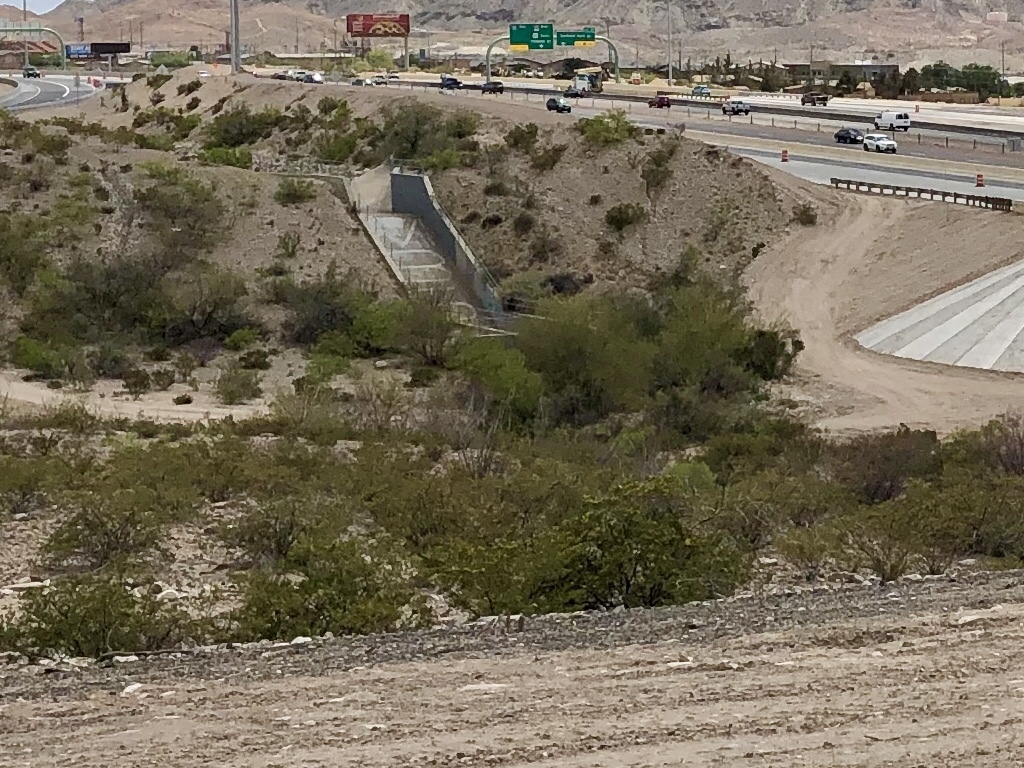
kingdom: Plantae
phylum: Tracheophyta
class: Magnoliopsida
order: Zygophyllales
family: Zygophyllaceae
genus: Larrea
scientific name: Larrea tridentata
